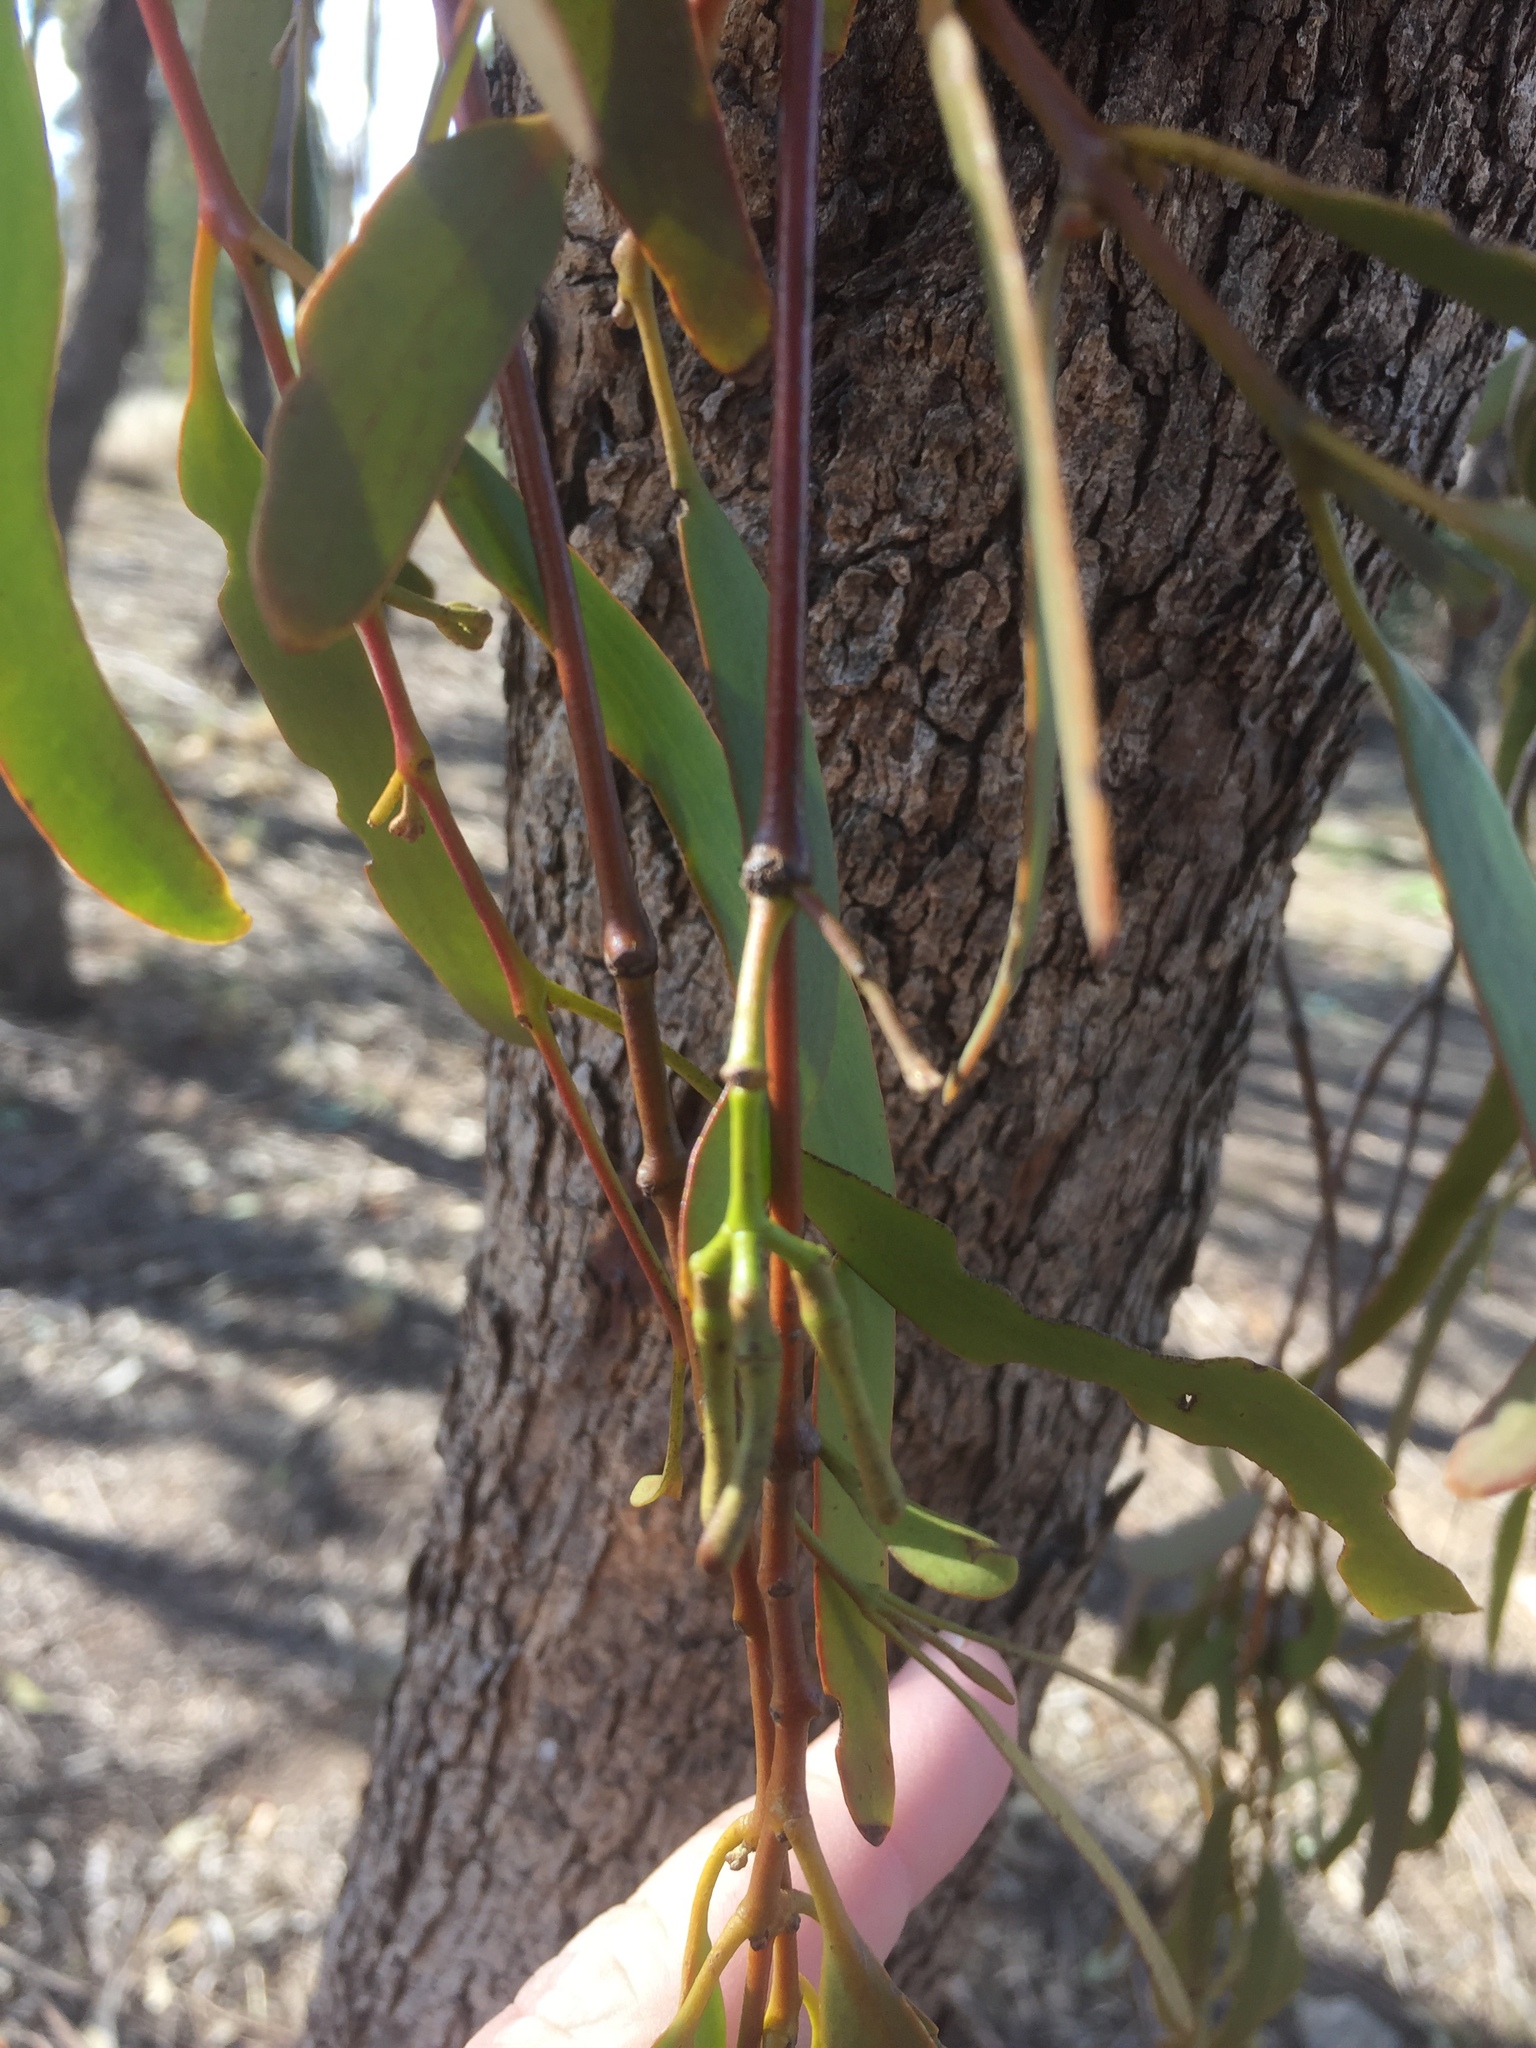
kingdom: Plantae
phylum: Tracheophyta
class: Magnoliopsida
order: Santalales
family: Loranthaceae
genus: Amyema
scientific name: Amyema miquelii
